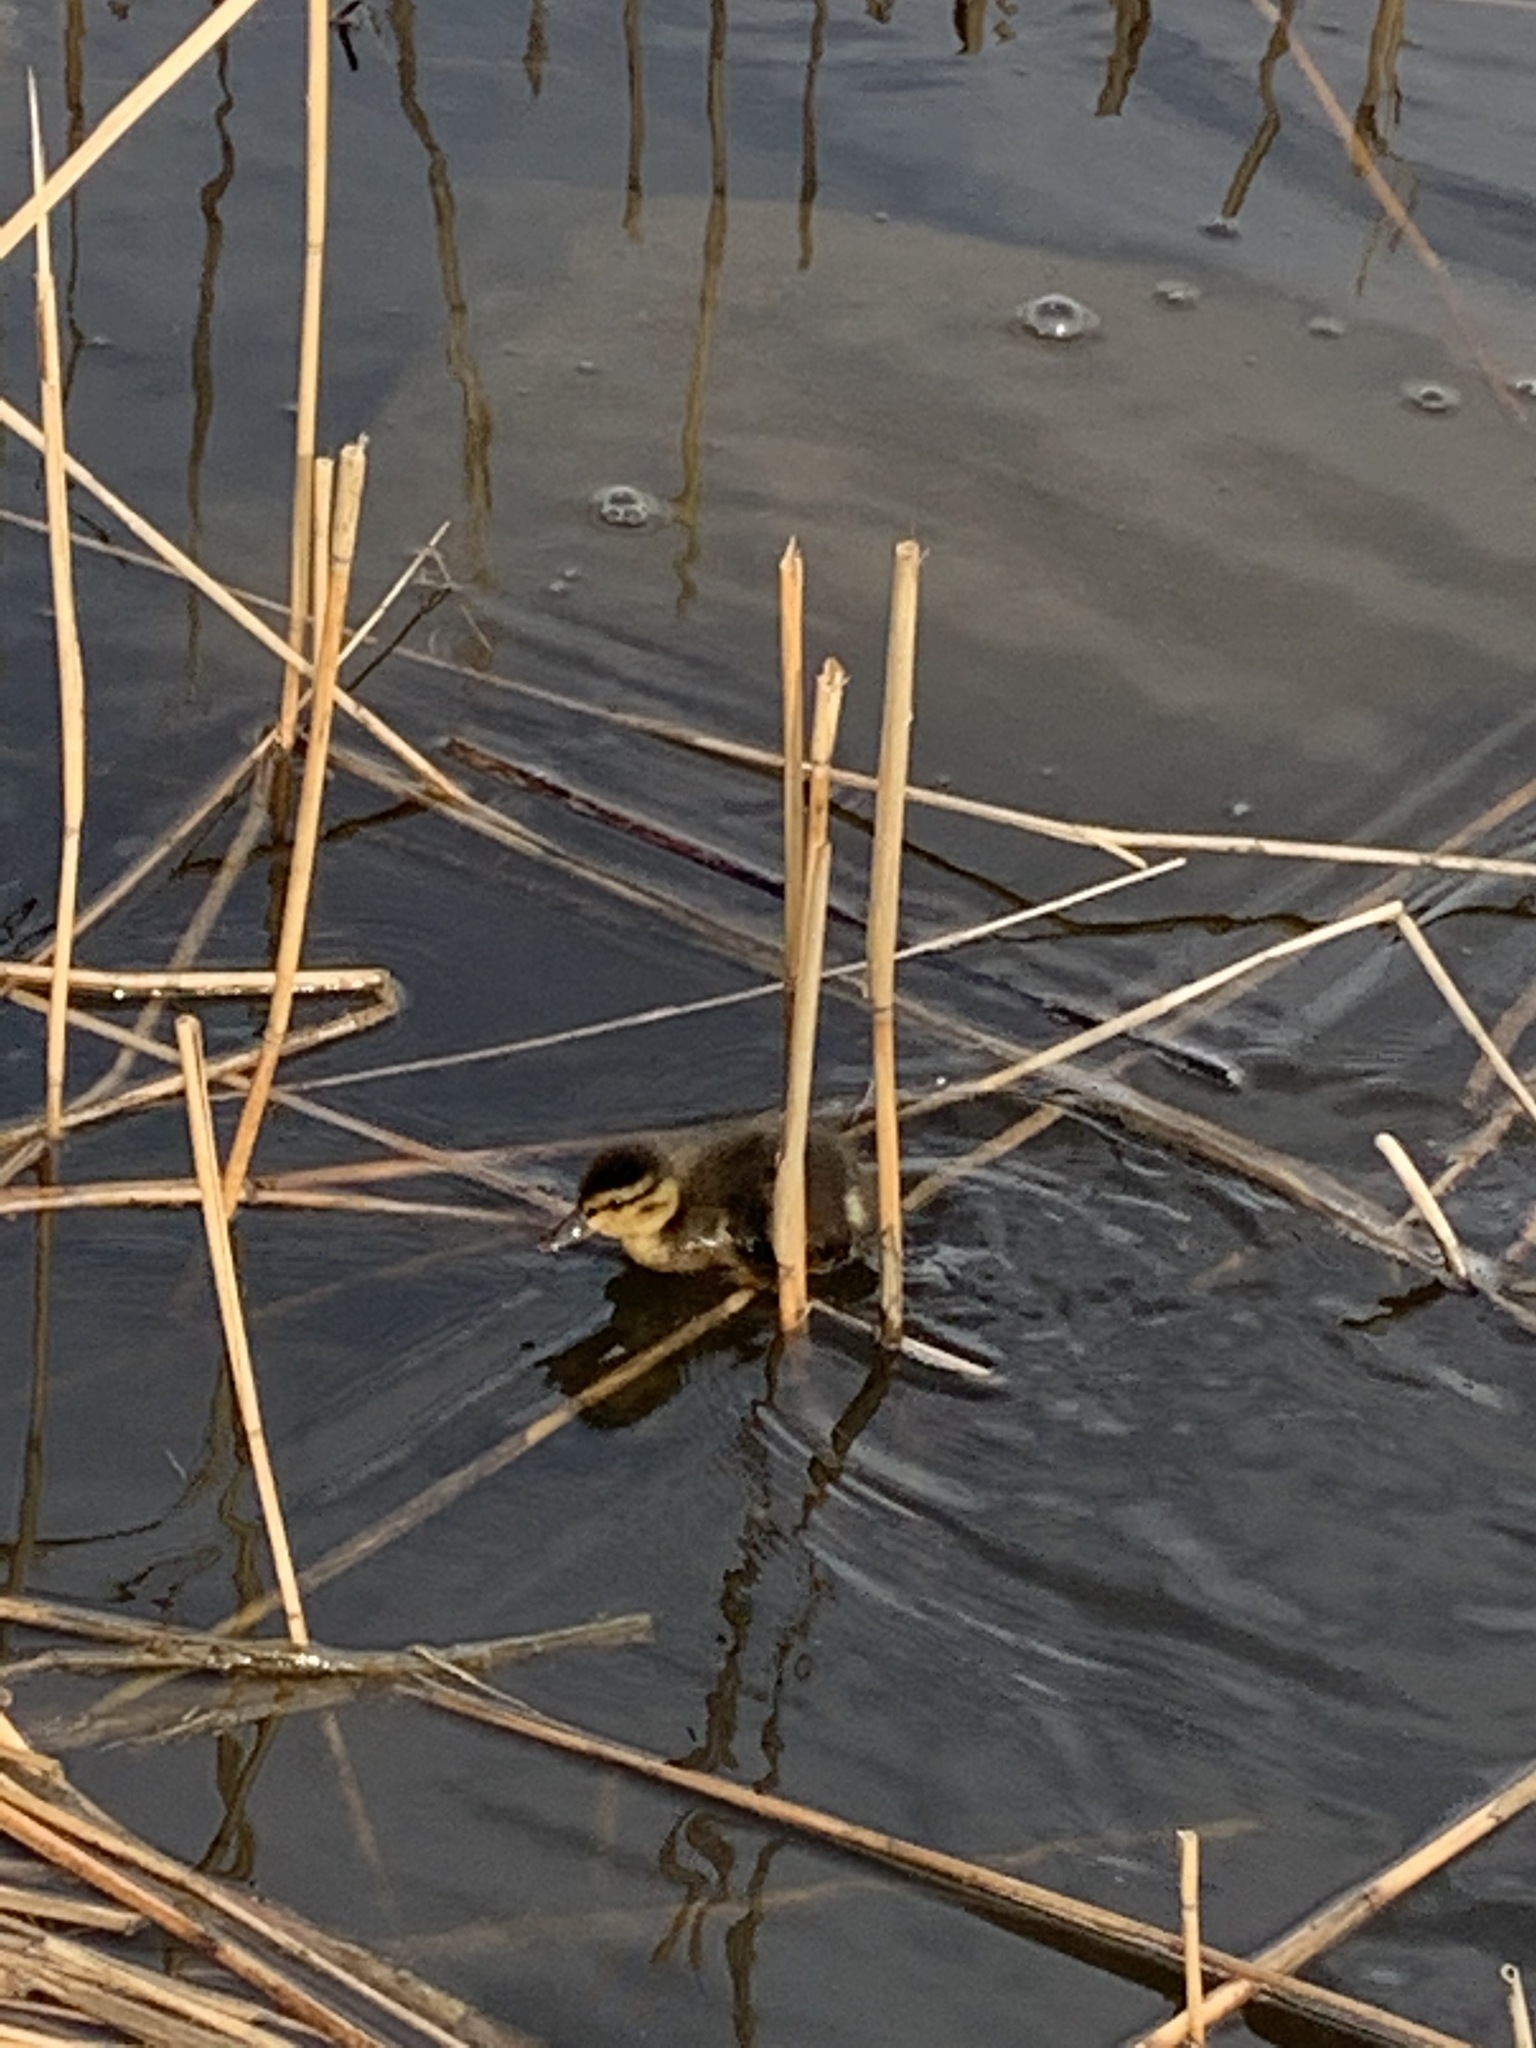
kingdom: Animalia
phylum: Chordata
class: Aves
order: Anseriformes
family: Anatidae
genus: Anas
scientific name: Anas platyrhynchos
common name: Mallard
